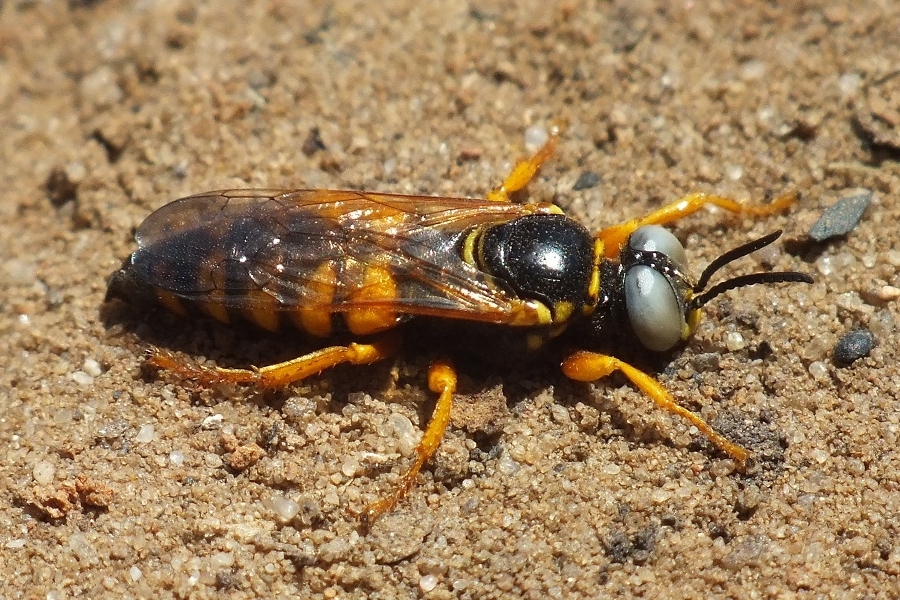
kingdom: Animalia
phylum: Arthropoda
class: Insecta
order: Hymenoptera
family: Crabronidae
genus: Palarus
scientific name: Palarus variegatus
